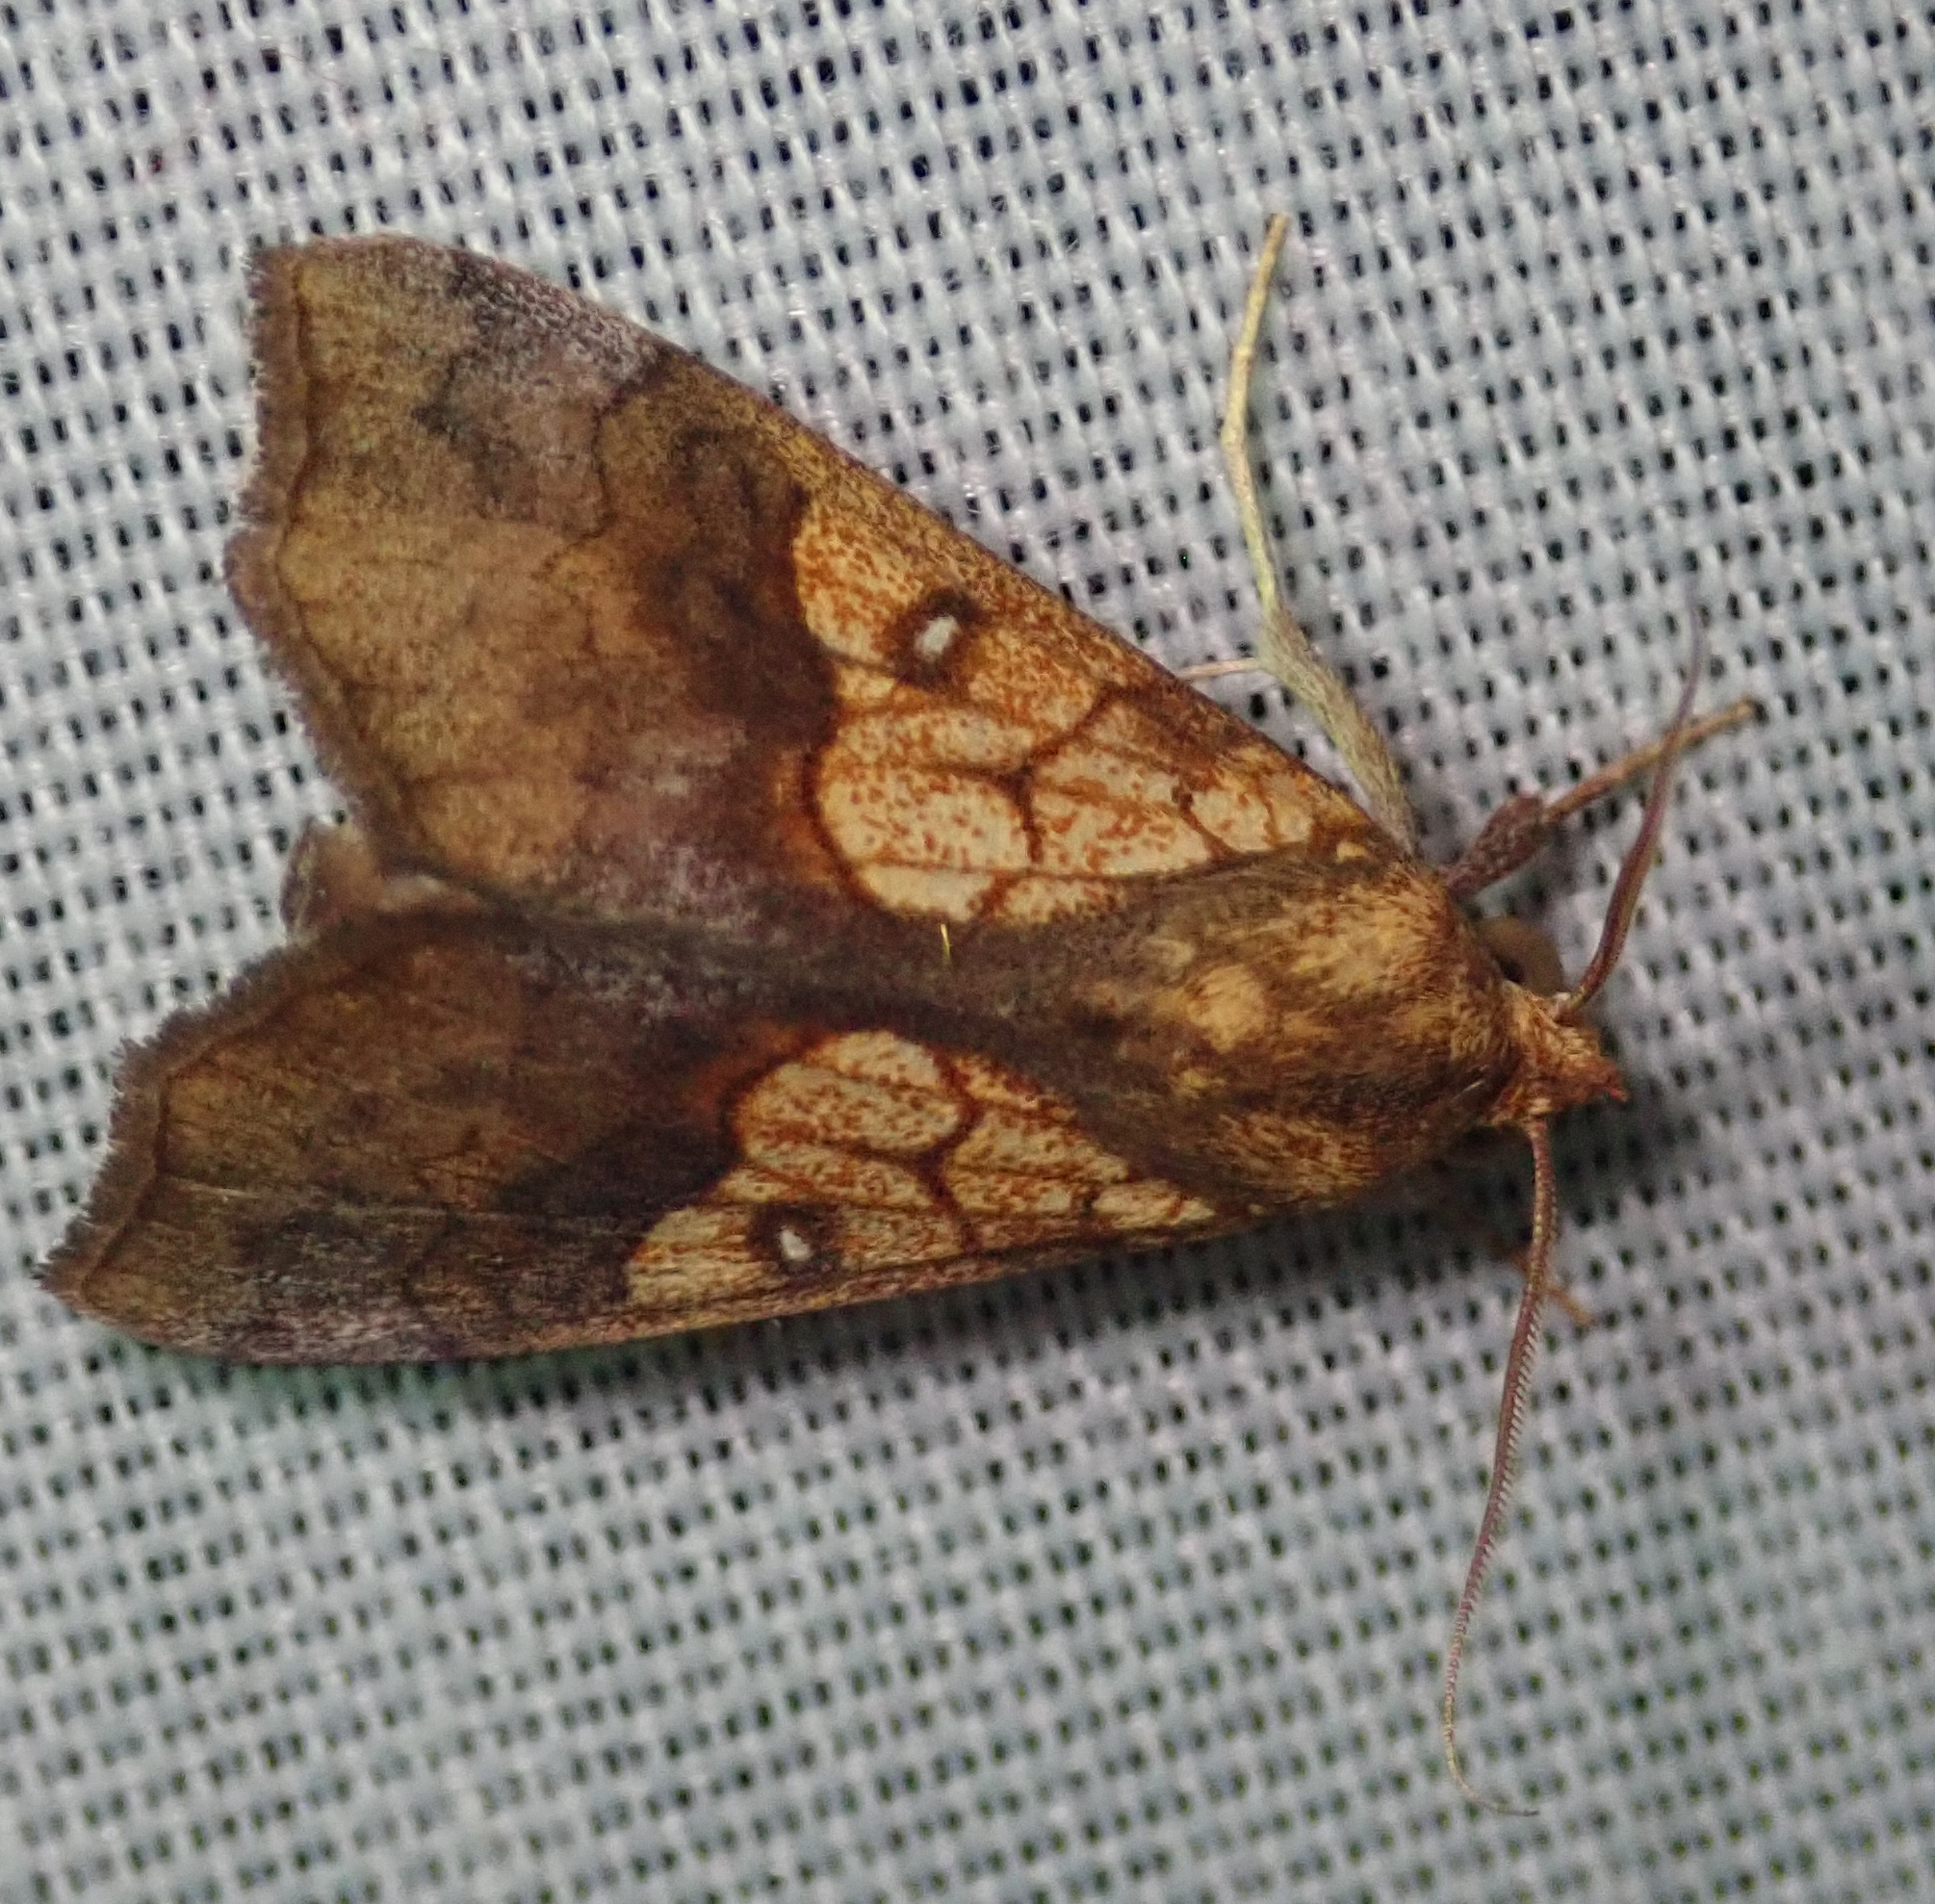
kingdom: Animalia
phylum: Arthropoda
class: Insecta
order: Lepidoptera
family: Erebidae
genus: Anomis
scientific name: Anomis flava
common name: Moth
